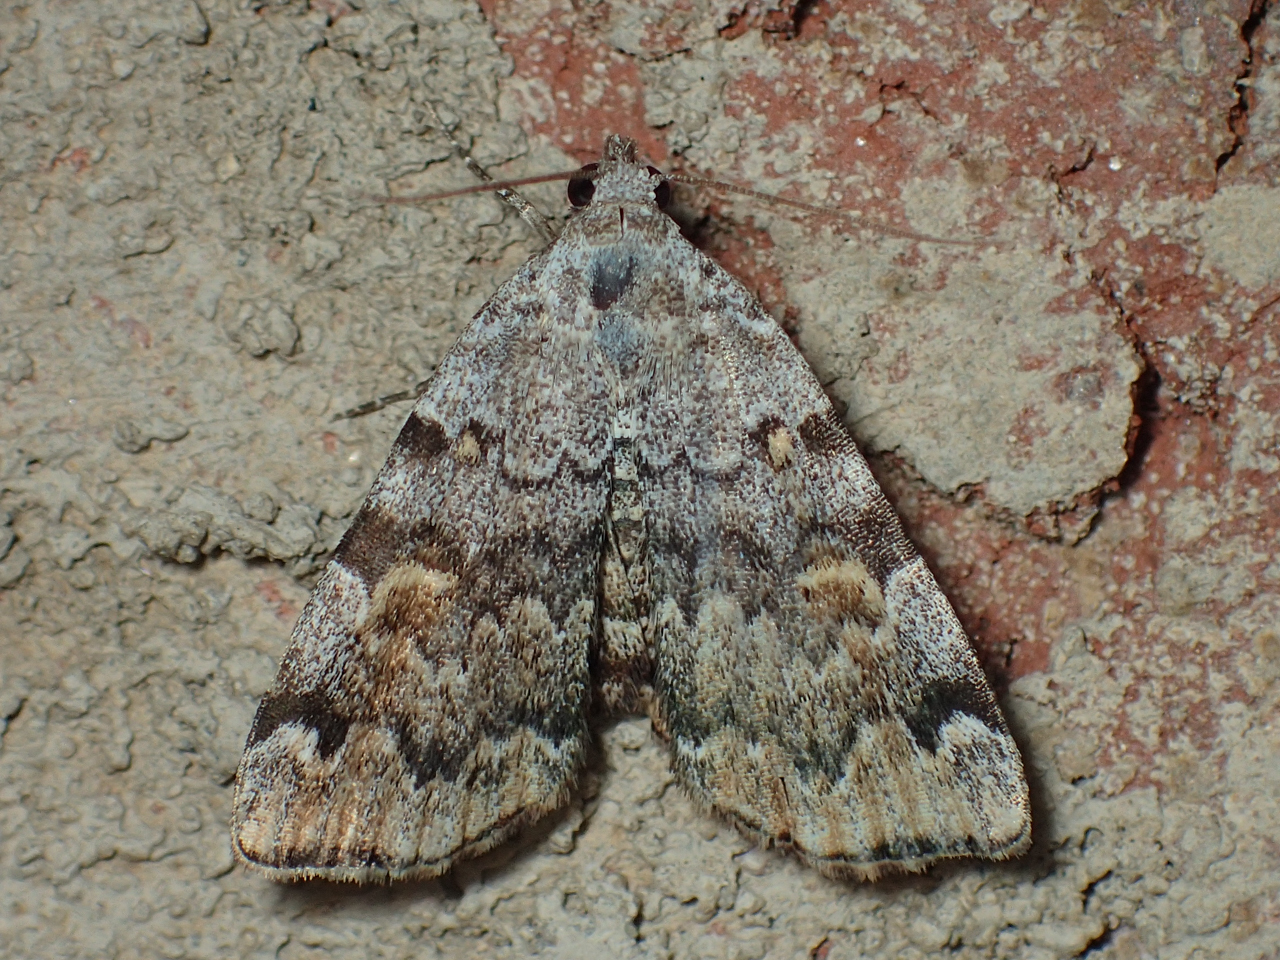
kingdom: Animalia
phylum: Arthropoda
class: Insecta
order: Lepidoptera
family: Erebidae
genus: Idia
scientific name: Idia americalis
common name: American idia moth
